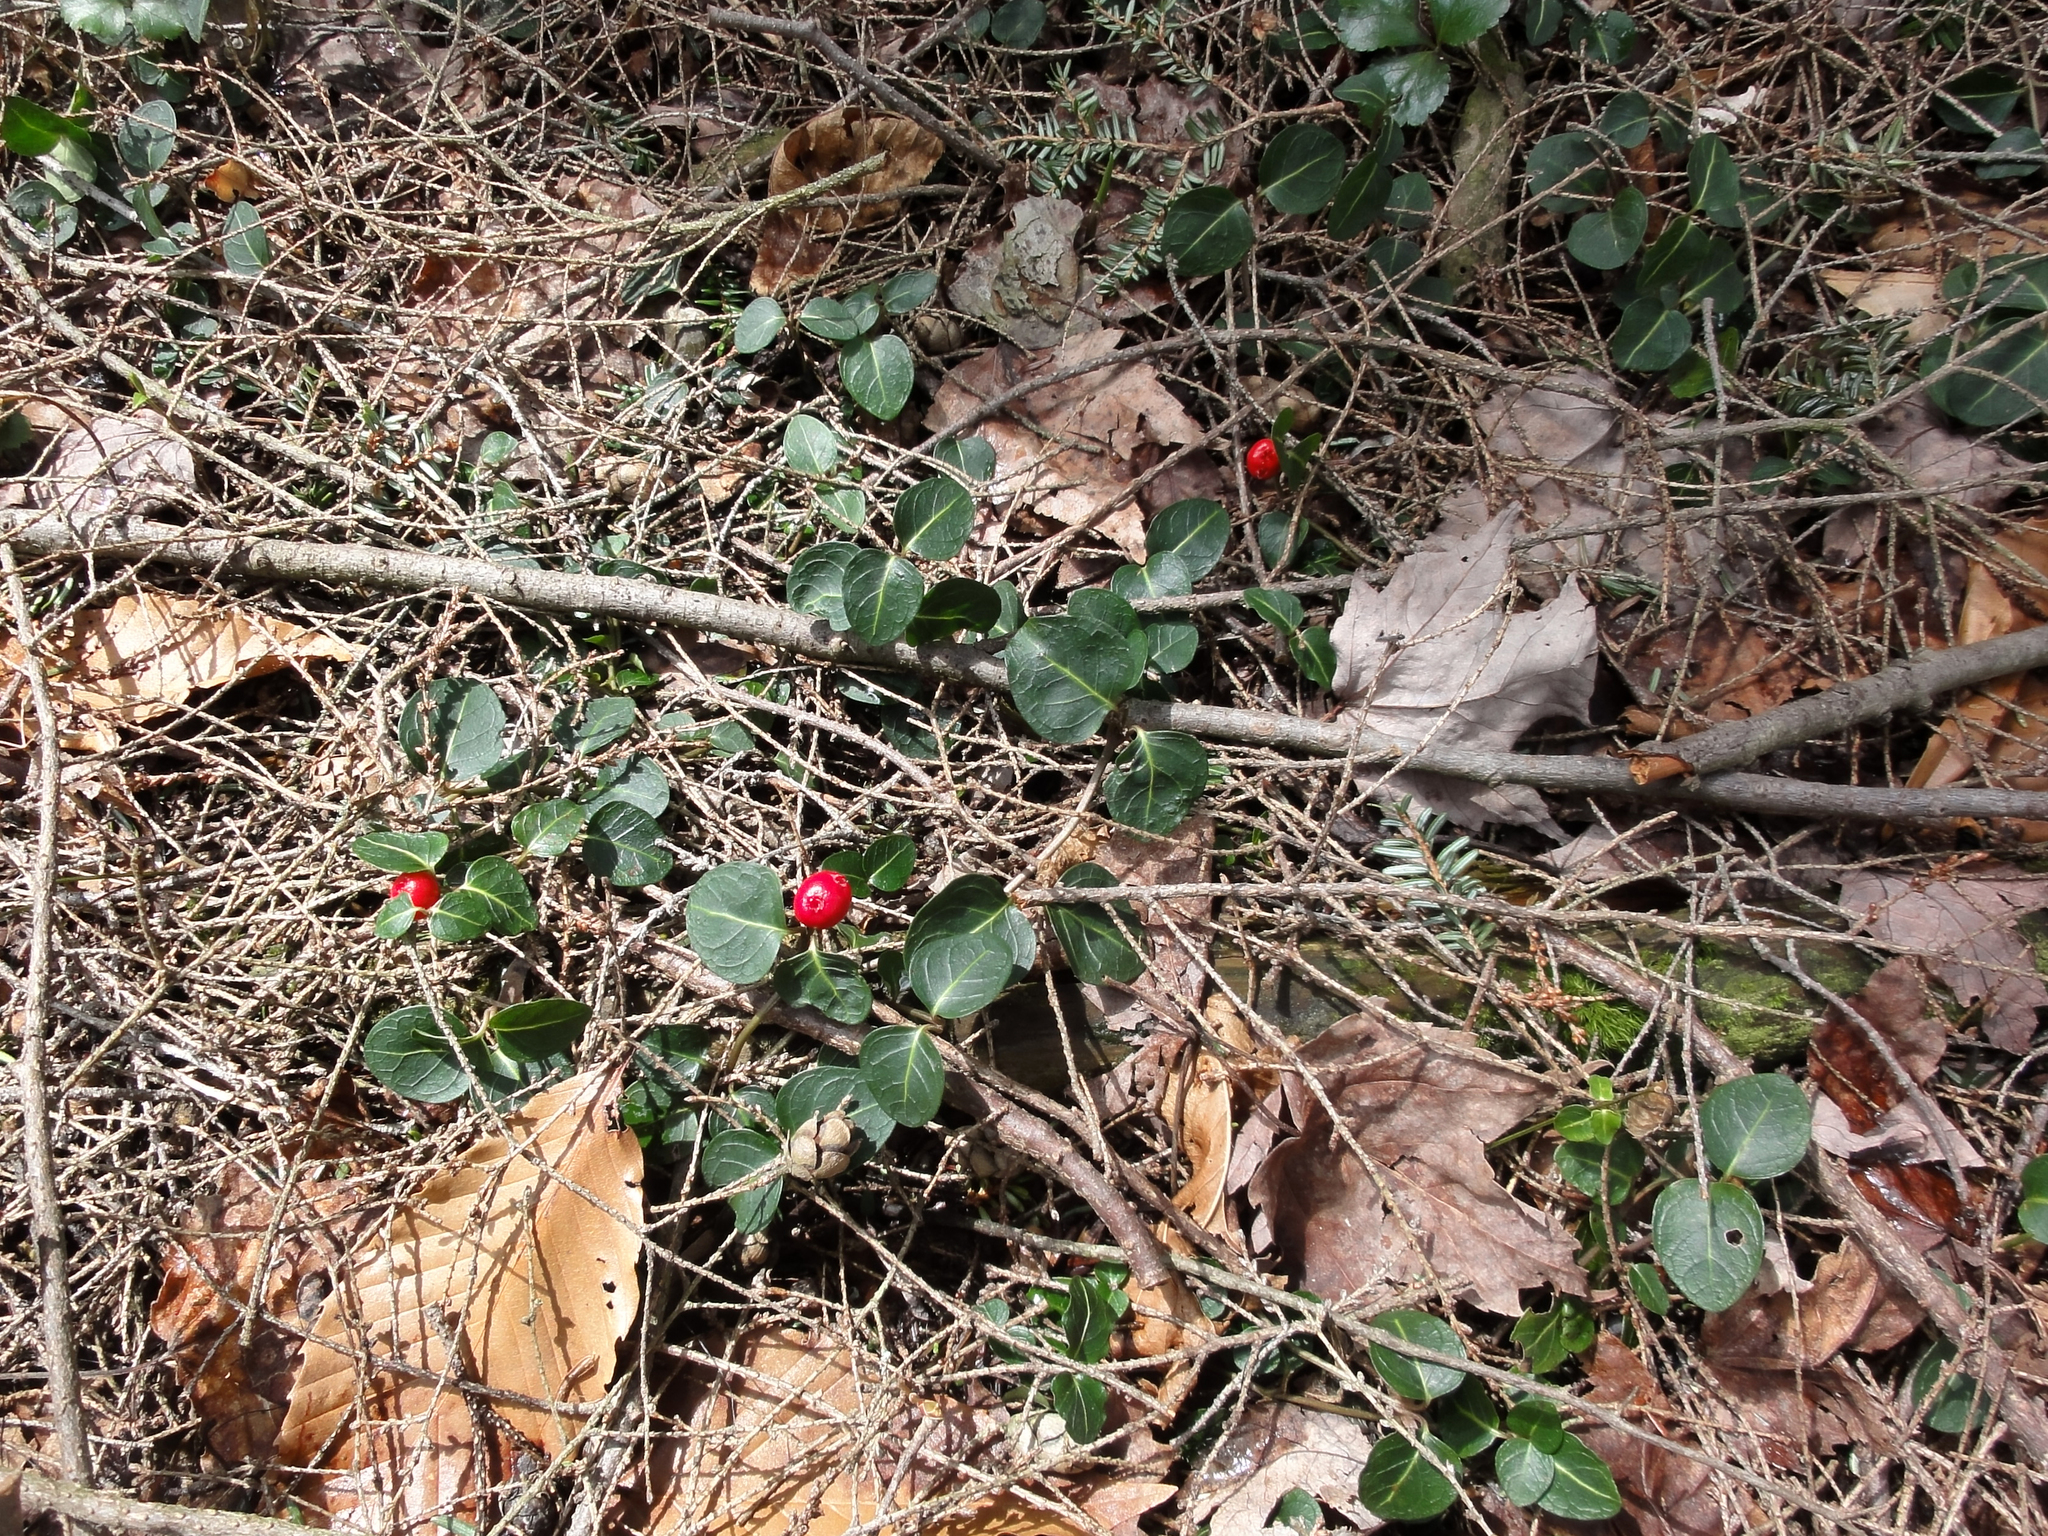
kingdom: Plantae
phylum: Tracheophyta
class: Magnoliopsida
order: Gentianales
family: Rubiaceae
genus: Mitchella
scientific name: Mitchella repens
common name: Partridge-berry
